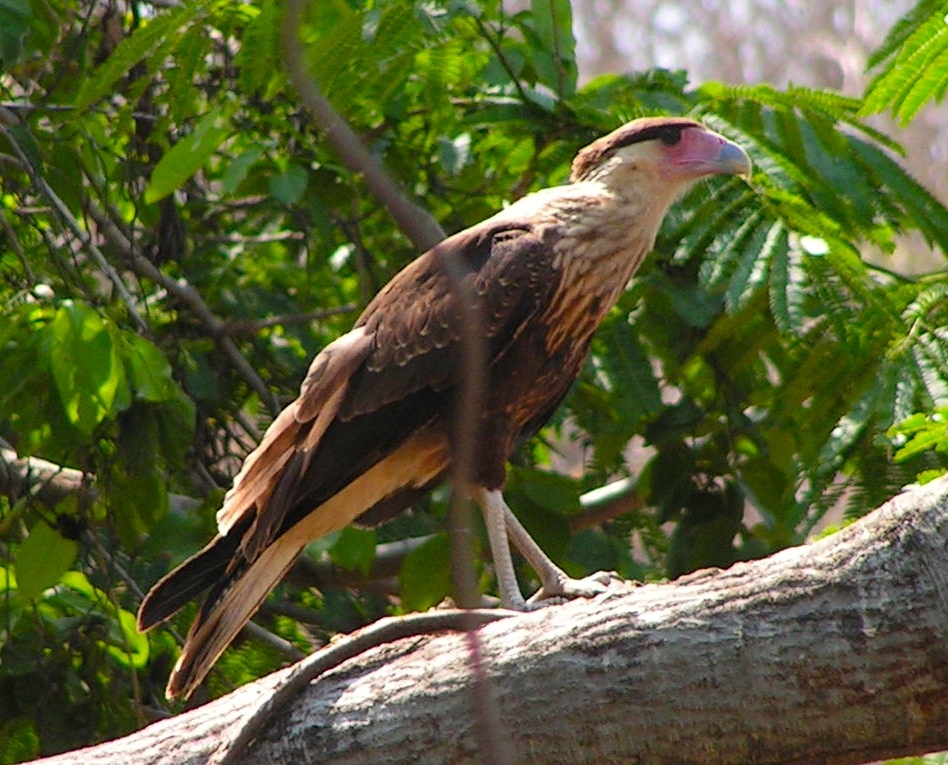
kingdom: Animalia
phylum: Chordata
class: Aves
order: Falconiformes
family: Falconidae
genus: Caracara
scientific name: Caracara plancus
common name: Southern caracara
